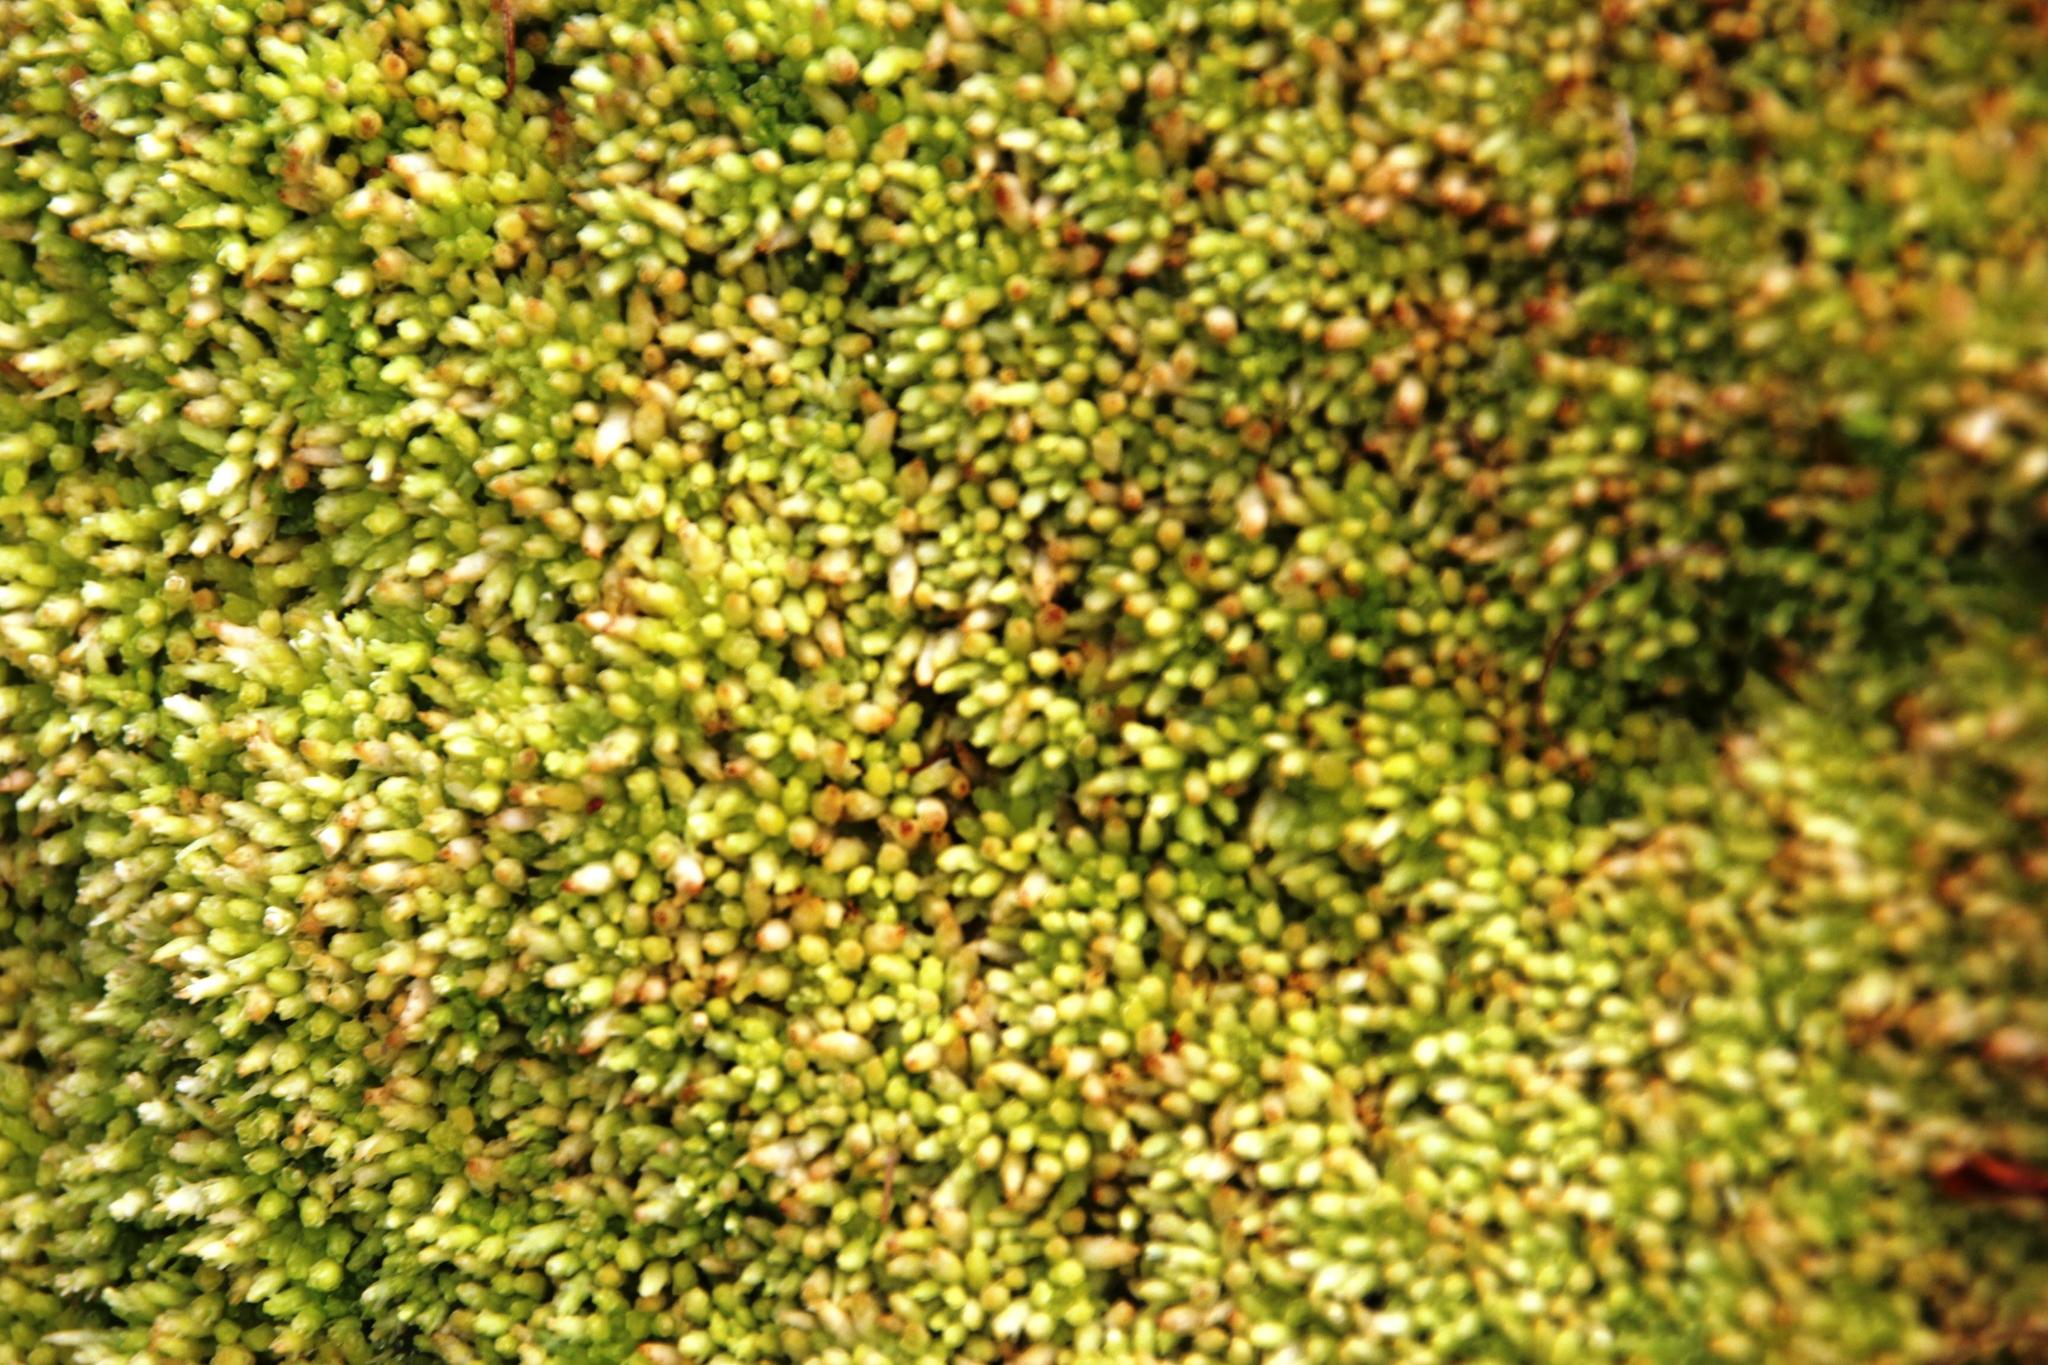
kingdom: Plantae
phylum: Bryophyta
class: Sphagnopsida
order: Sphagnales
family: Sphagnaceae
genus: Sphagnum
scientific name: Sphagnum truncatum
